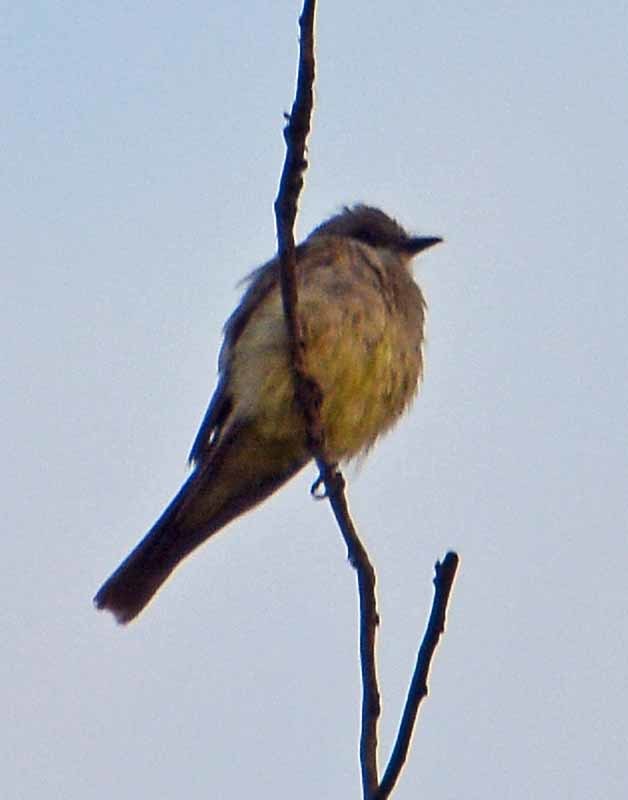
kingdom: Animalia
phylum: Chordata
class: Aves
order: Passeriformes
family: Tyrannidae
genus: Tyrannus
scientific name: Tyrannus verticalis
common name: Western kingbird
